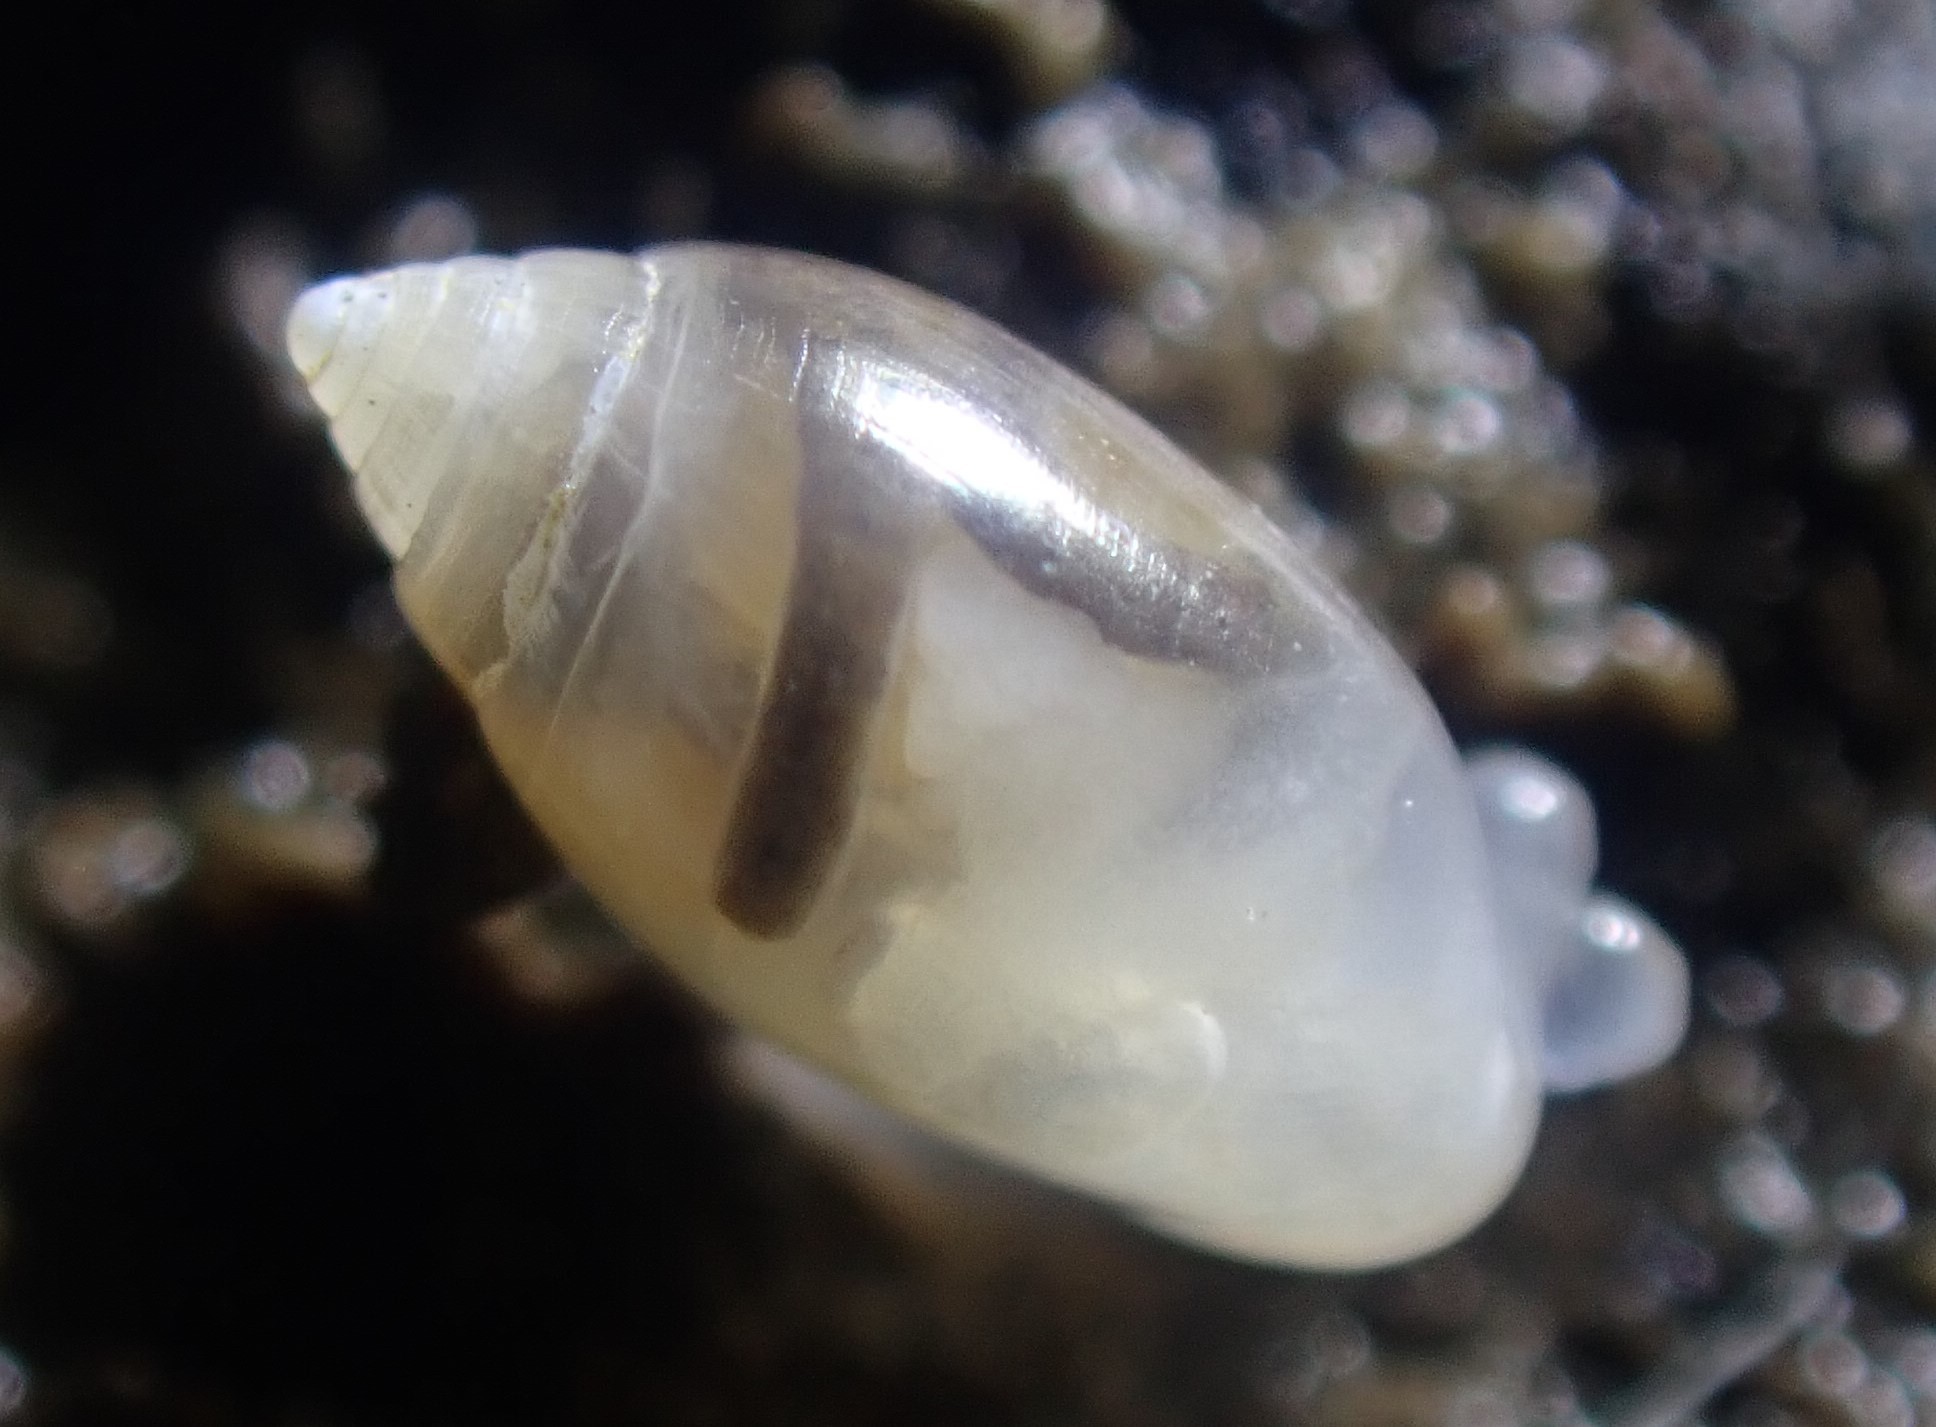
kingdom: Animalia
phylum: Mollusca
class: Gastropoda
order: Ellobiida
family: Ellobiidae
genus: Microtralia
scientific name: Microtralia insularis
